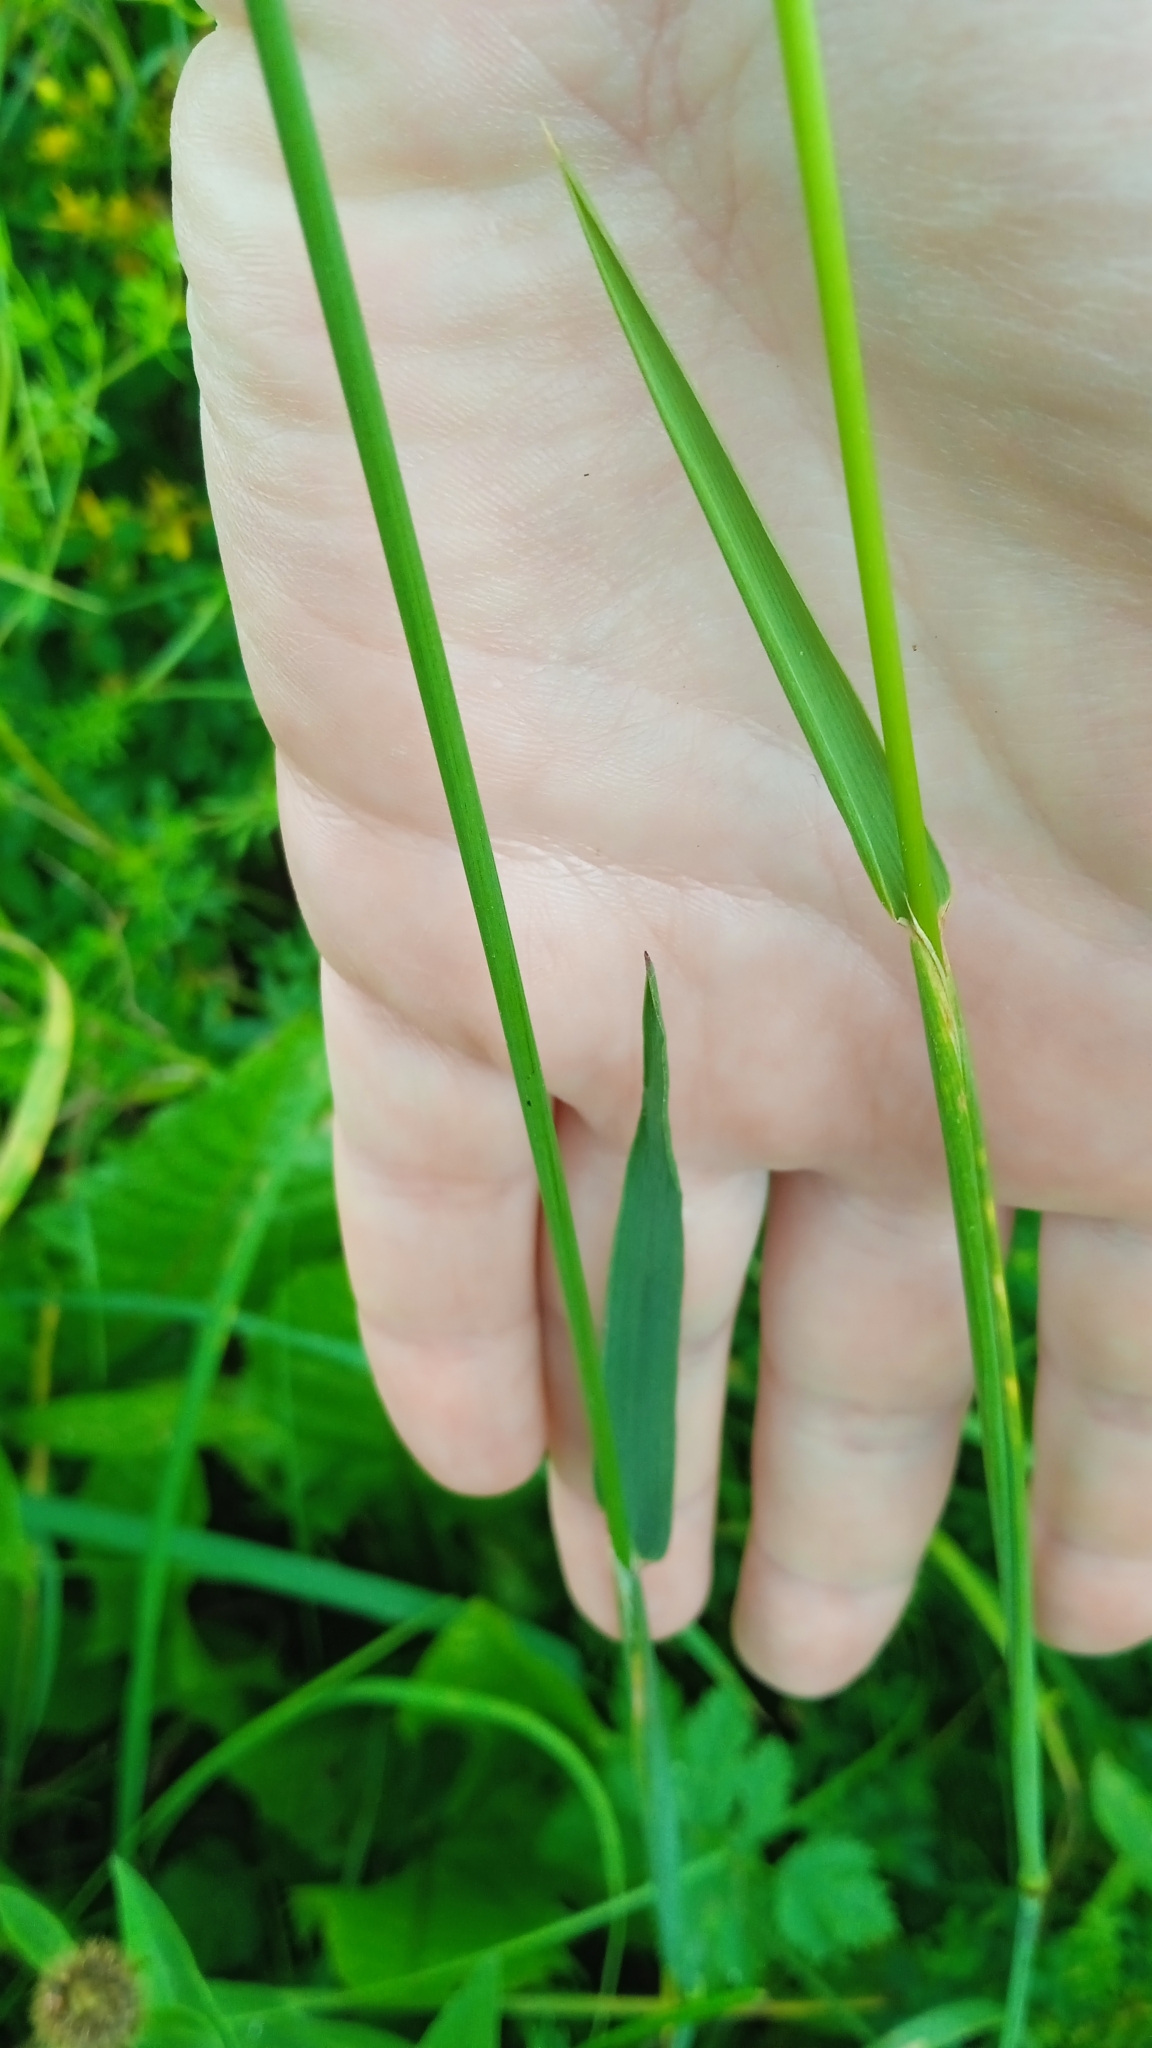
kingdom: Plantae
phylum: Tracheophyta
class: Liliopsida
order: Poales
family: Poaceae
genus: Phleum
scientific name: Phleum pratense
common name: Timothy grass
